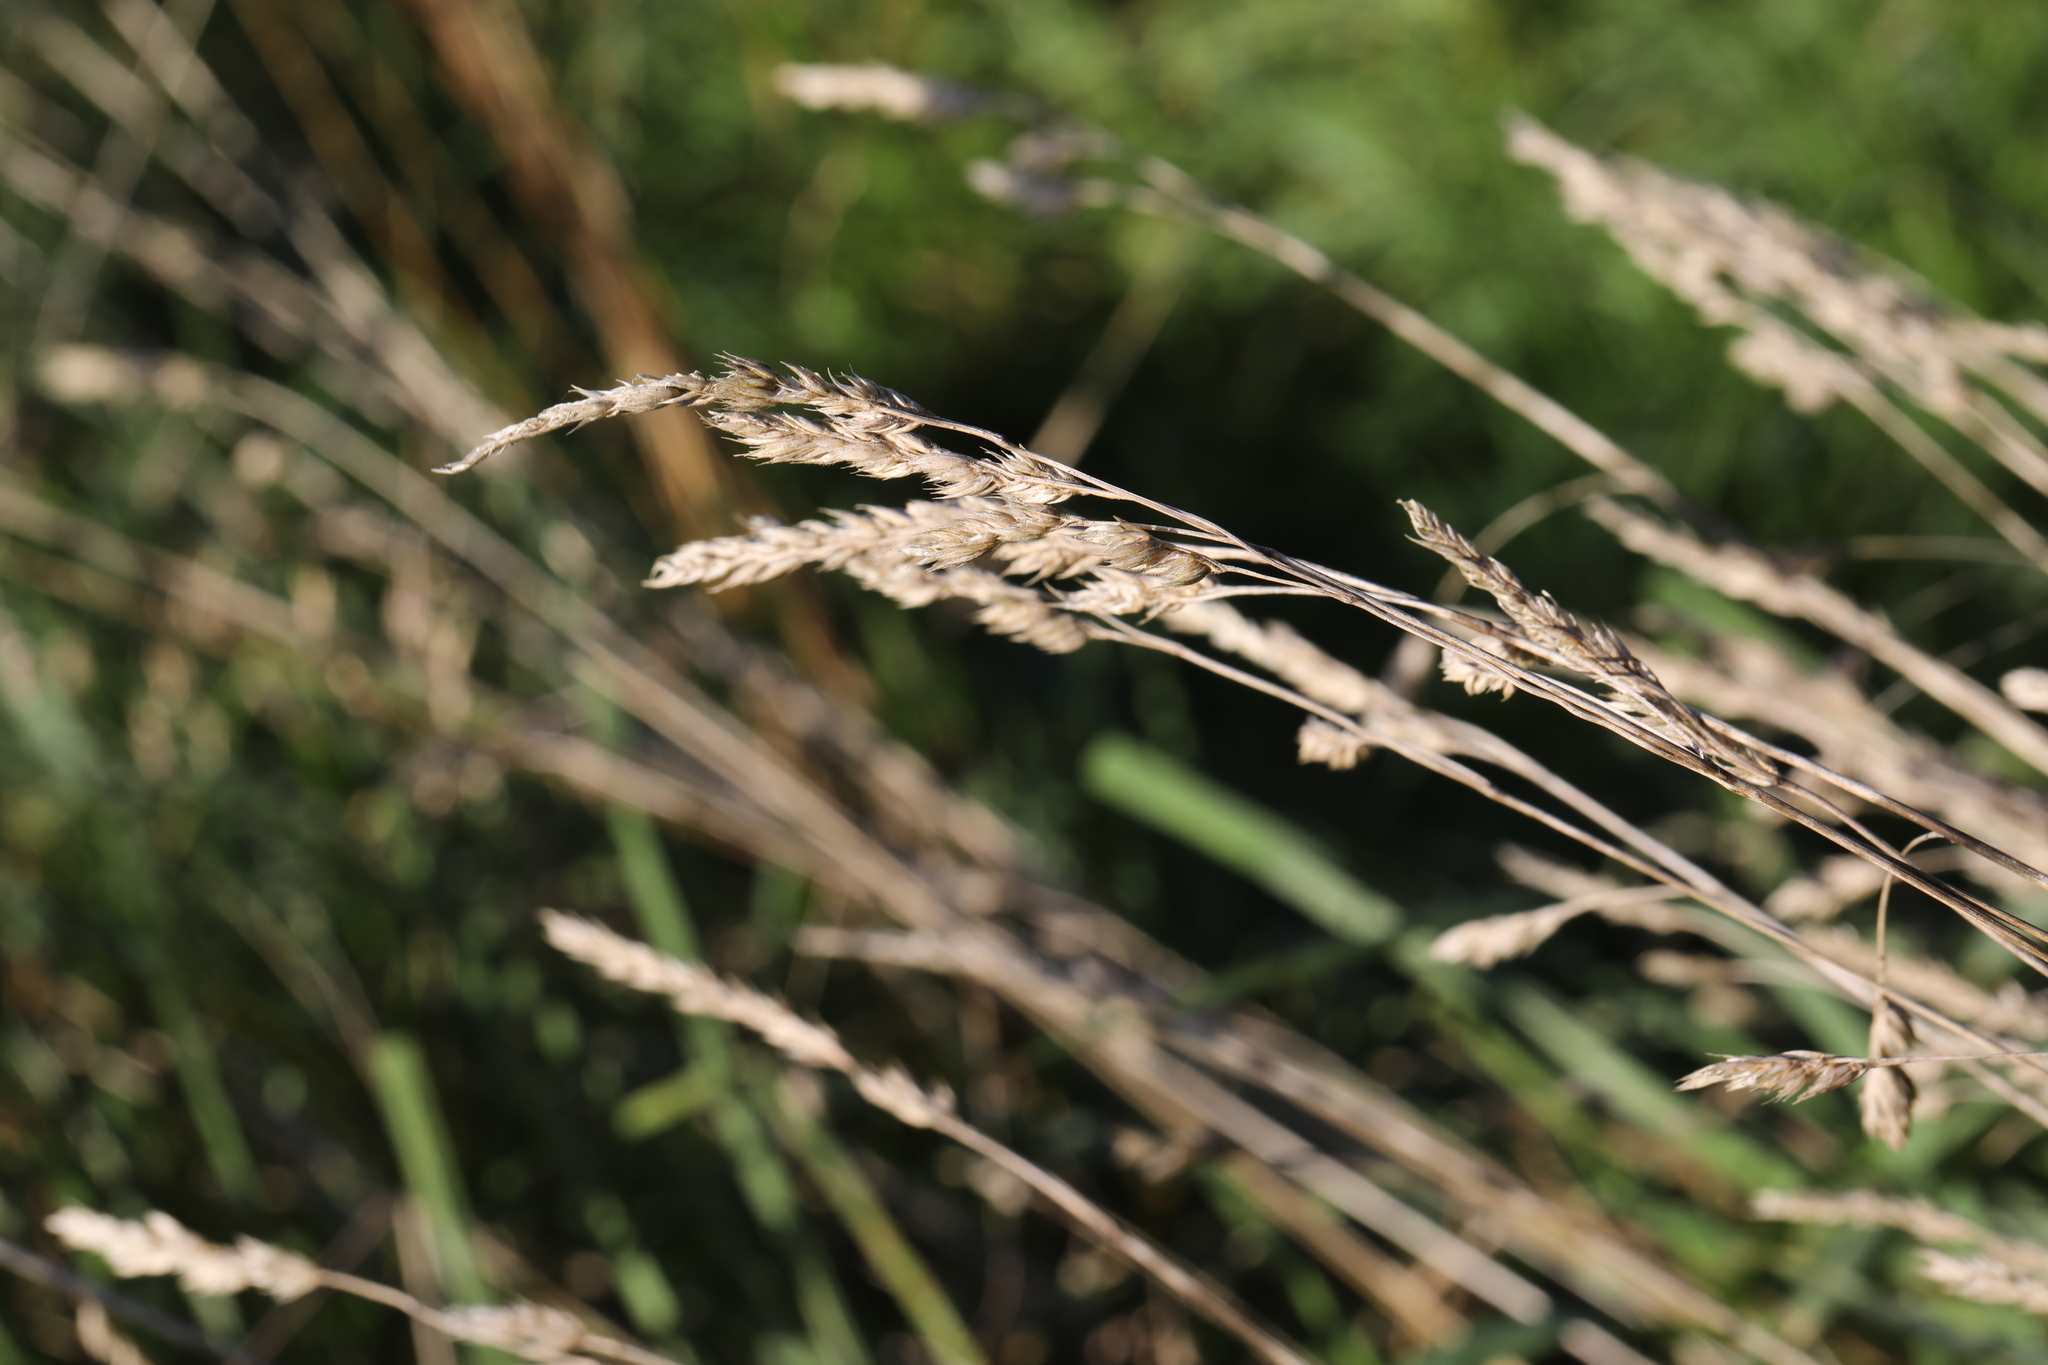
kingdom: Plantae
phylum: Tracheophyta
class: Liliopsida
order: Poales
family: Poaceae
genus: Dactylis
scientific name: Dactylis glomerata
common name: Orchardgrass
